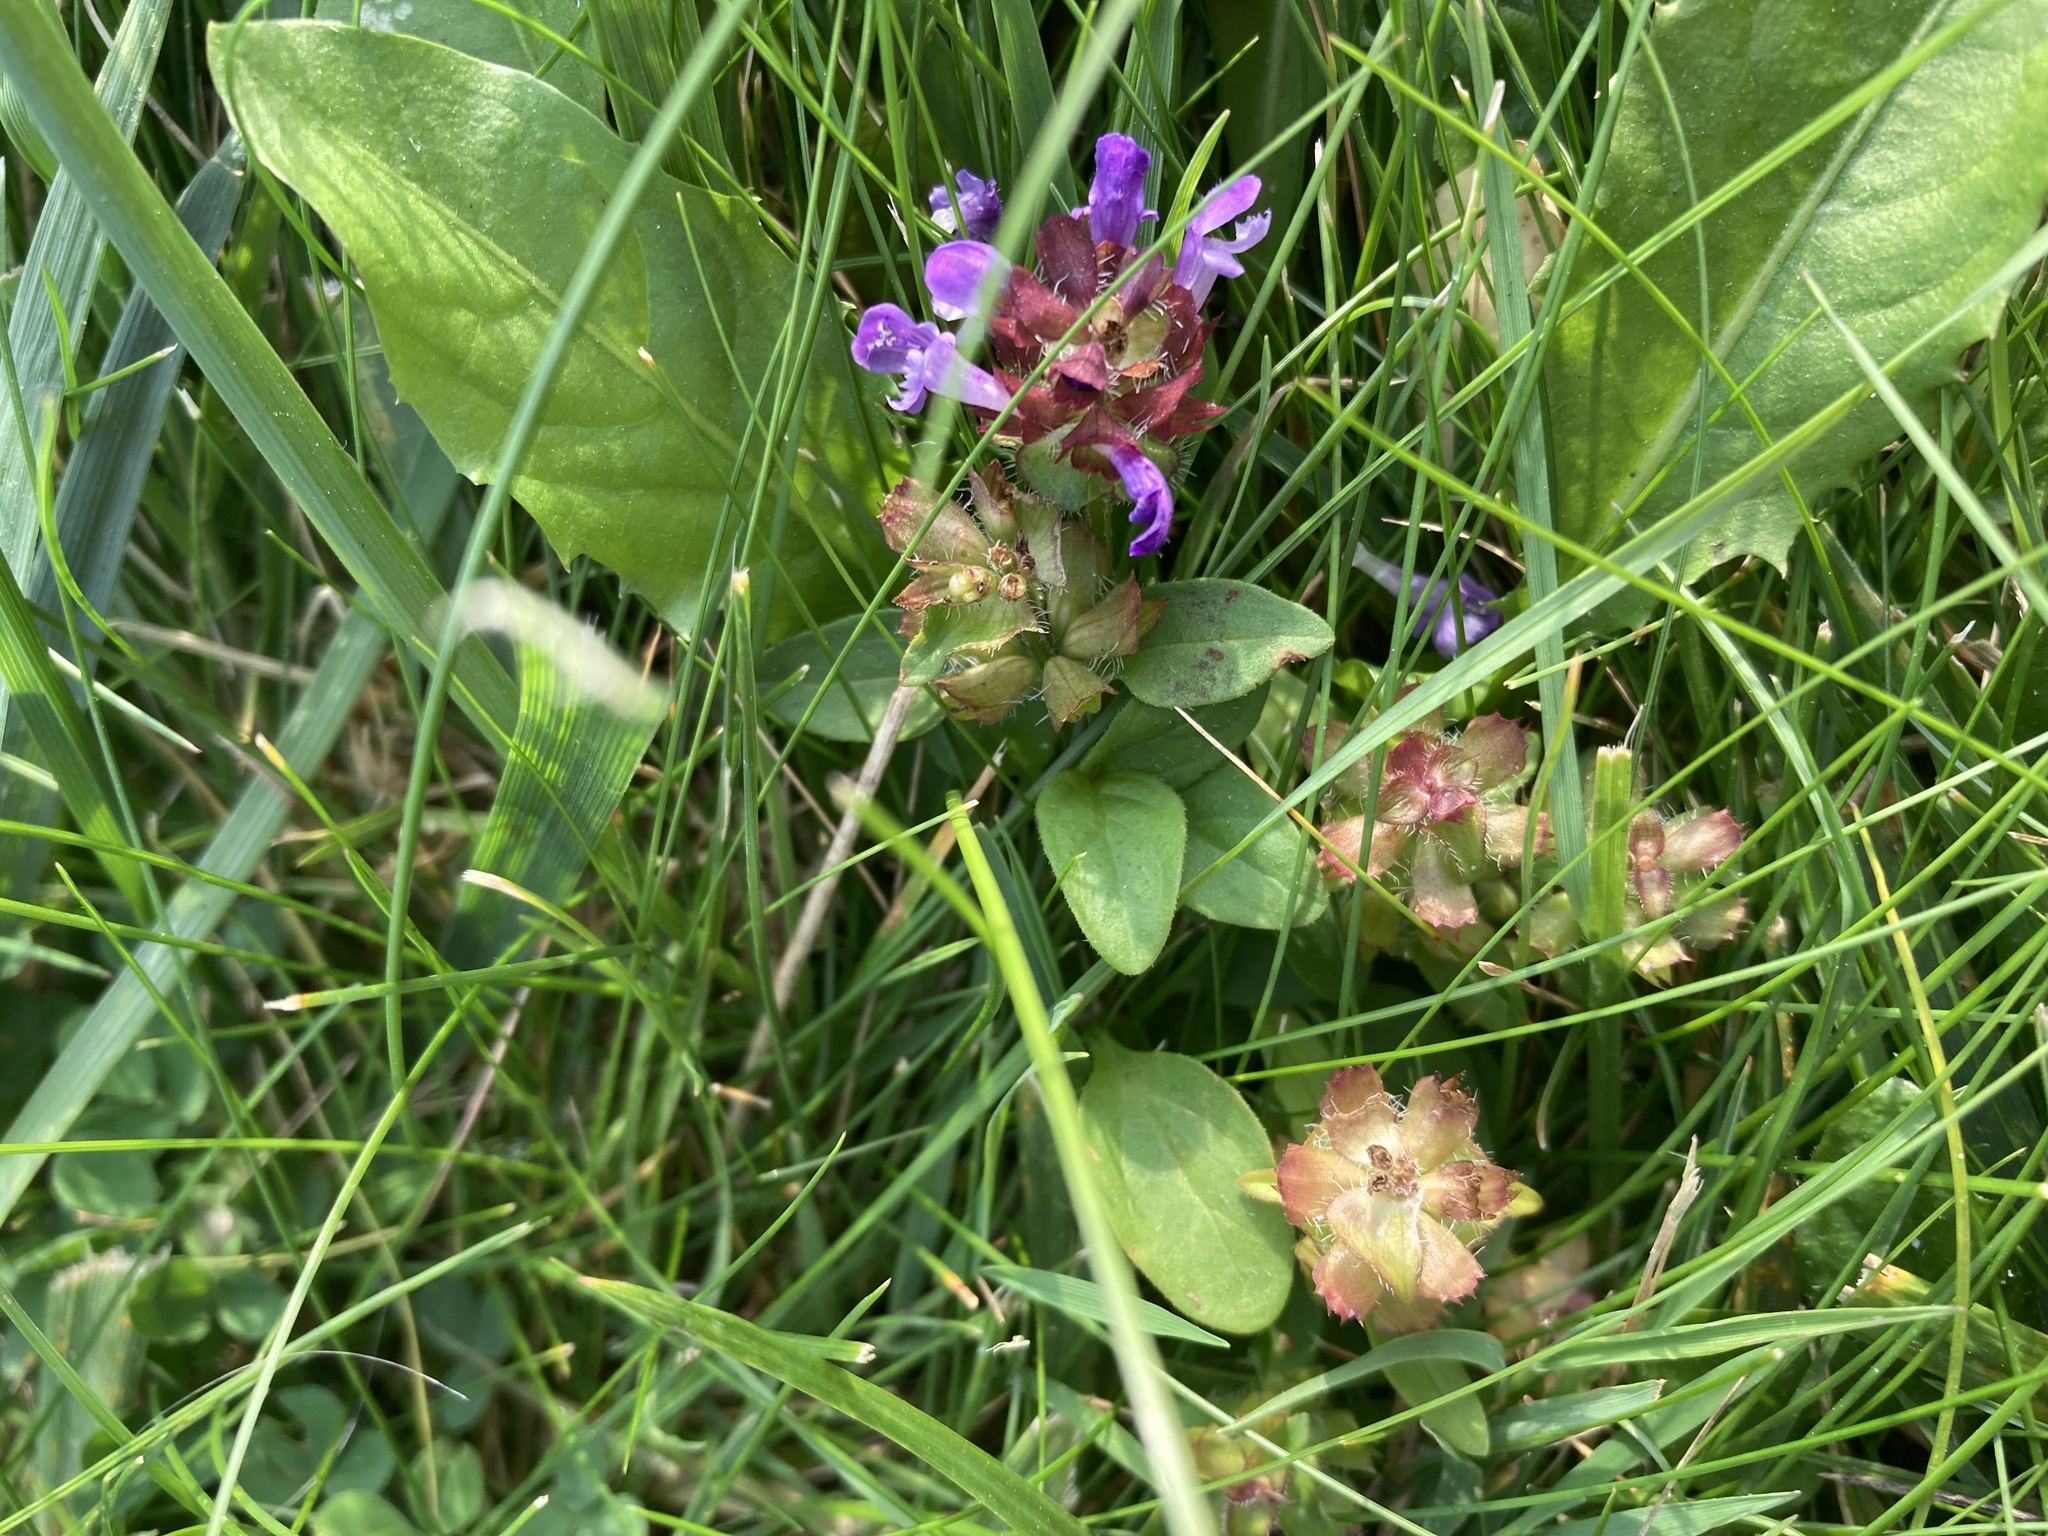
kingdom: Plantae
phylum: Tracheophyta
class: Magnoliopsida
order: Lamiales
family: Lamiaceae
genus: Prunella
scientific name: Prunella vulgaris
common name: Heal-all
